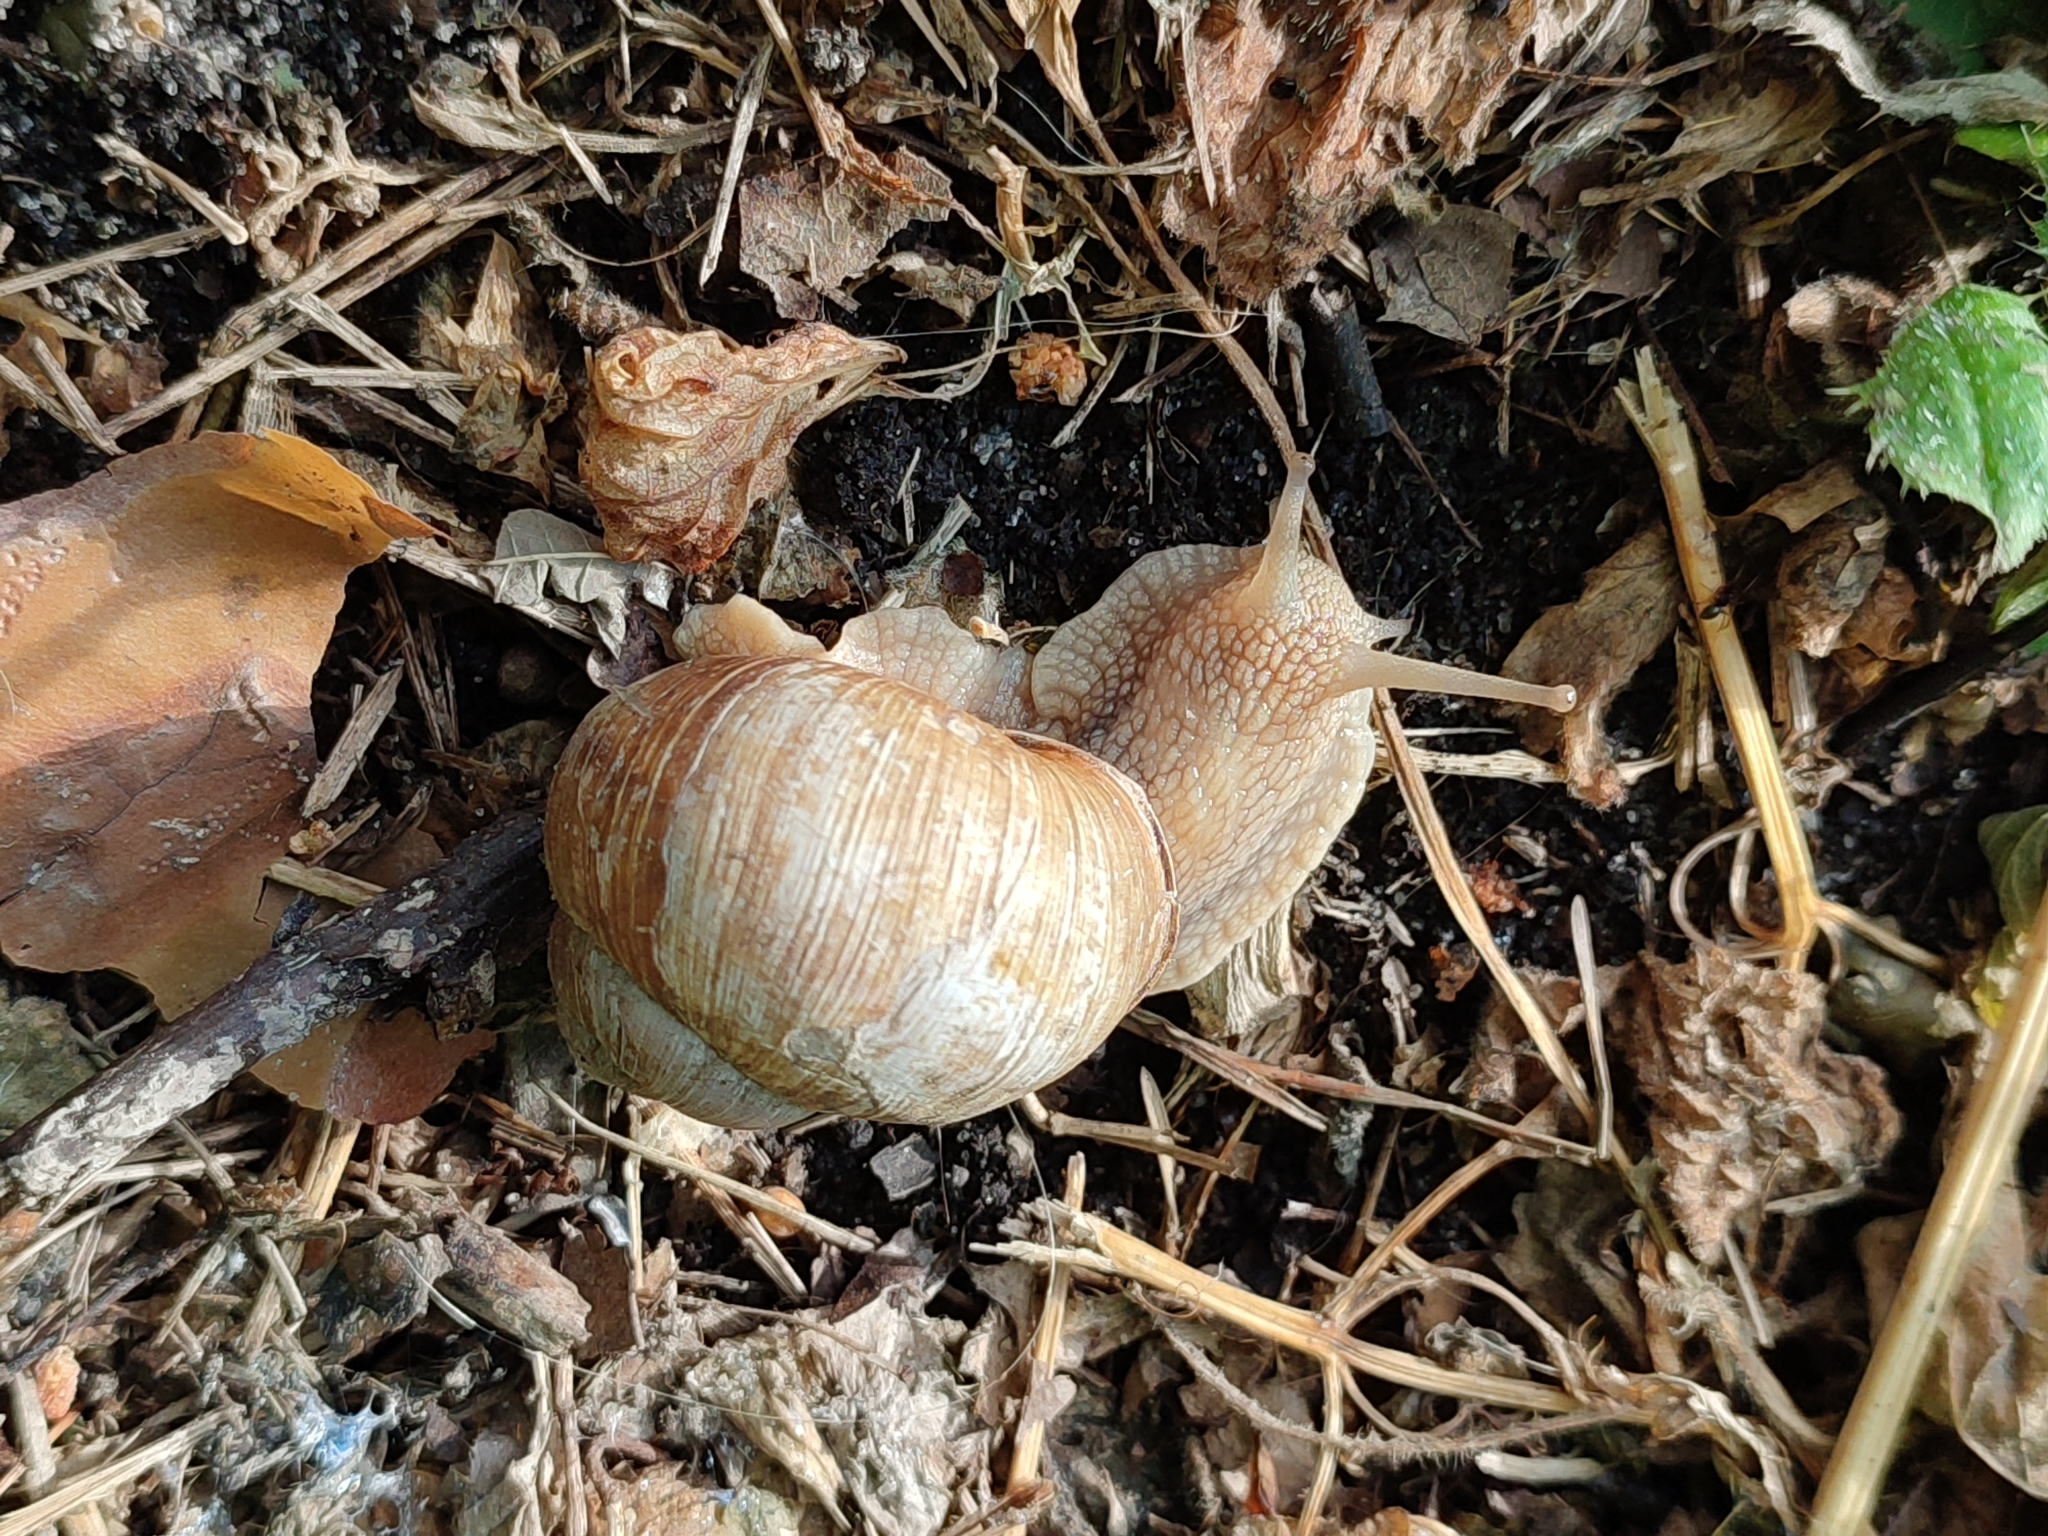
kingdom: Animalia
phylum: Mollusca
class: Gastropoda
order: Stylommatophora
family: Helicidae
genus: Helix
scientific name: Helix pomatia
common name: Roman snail
